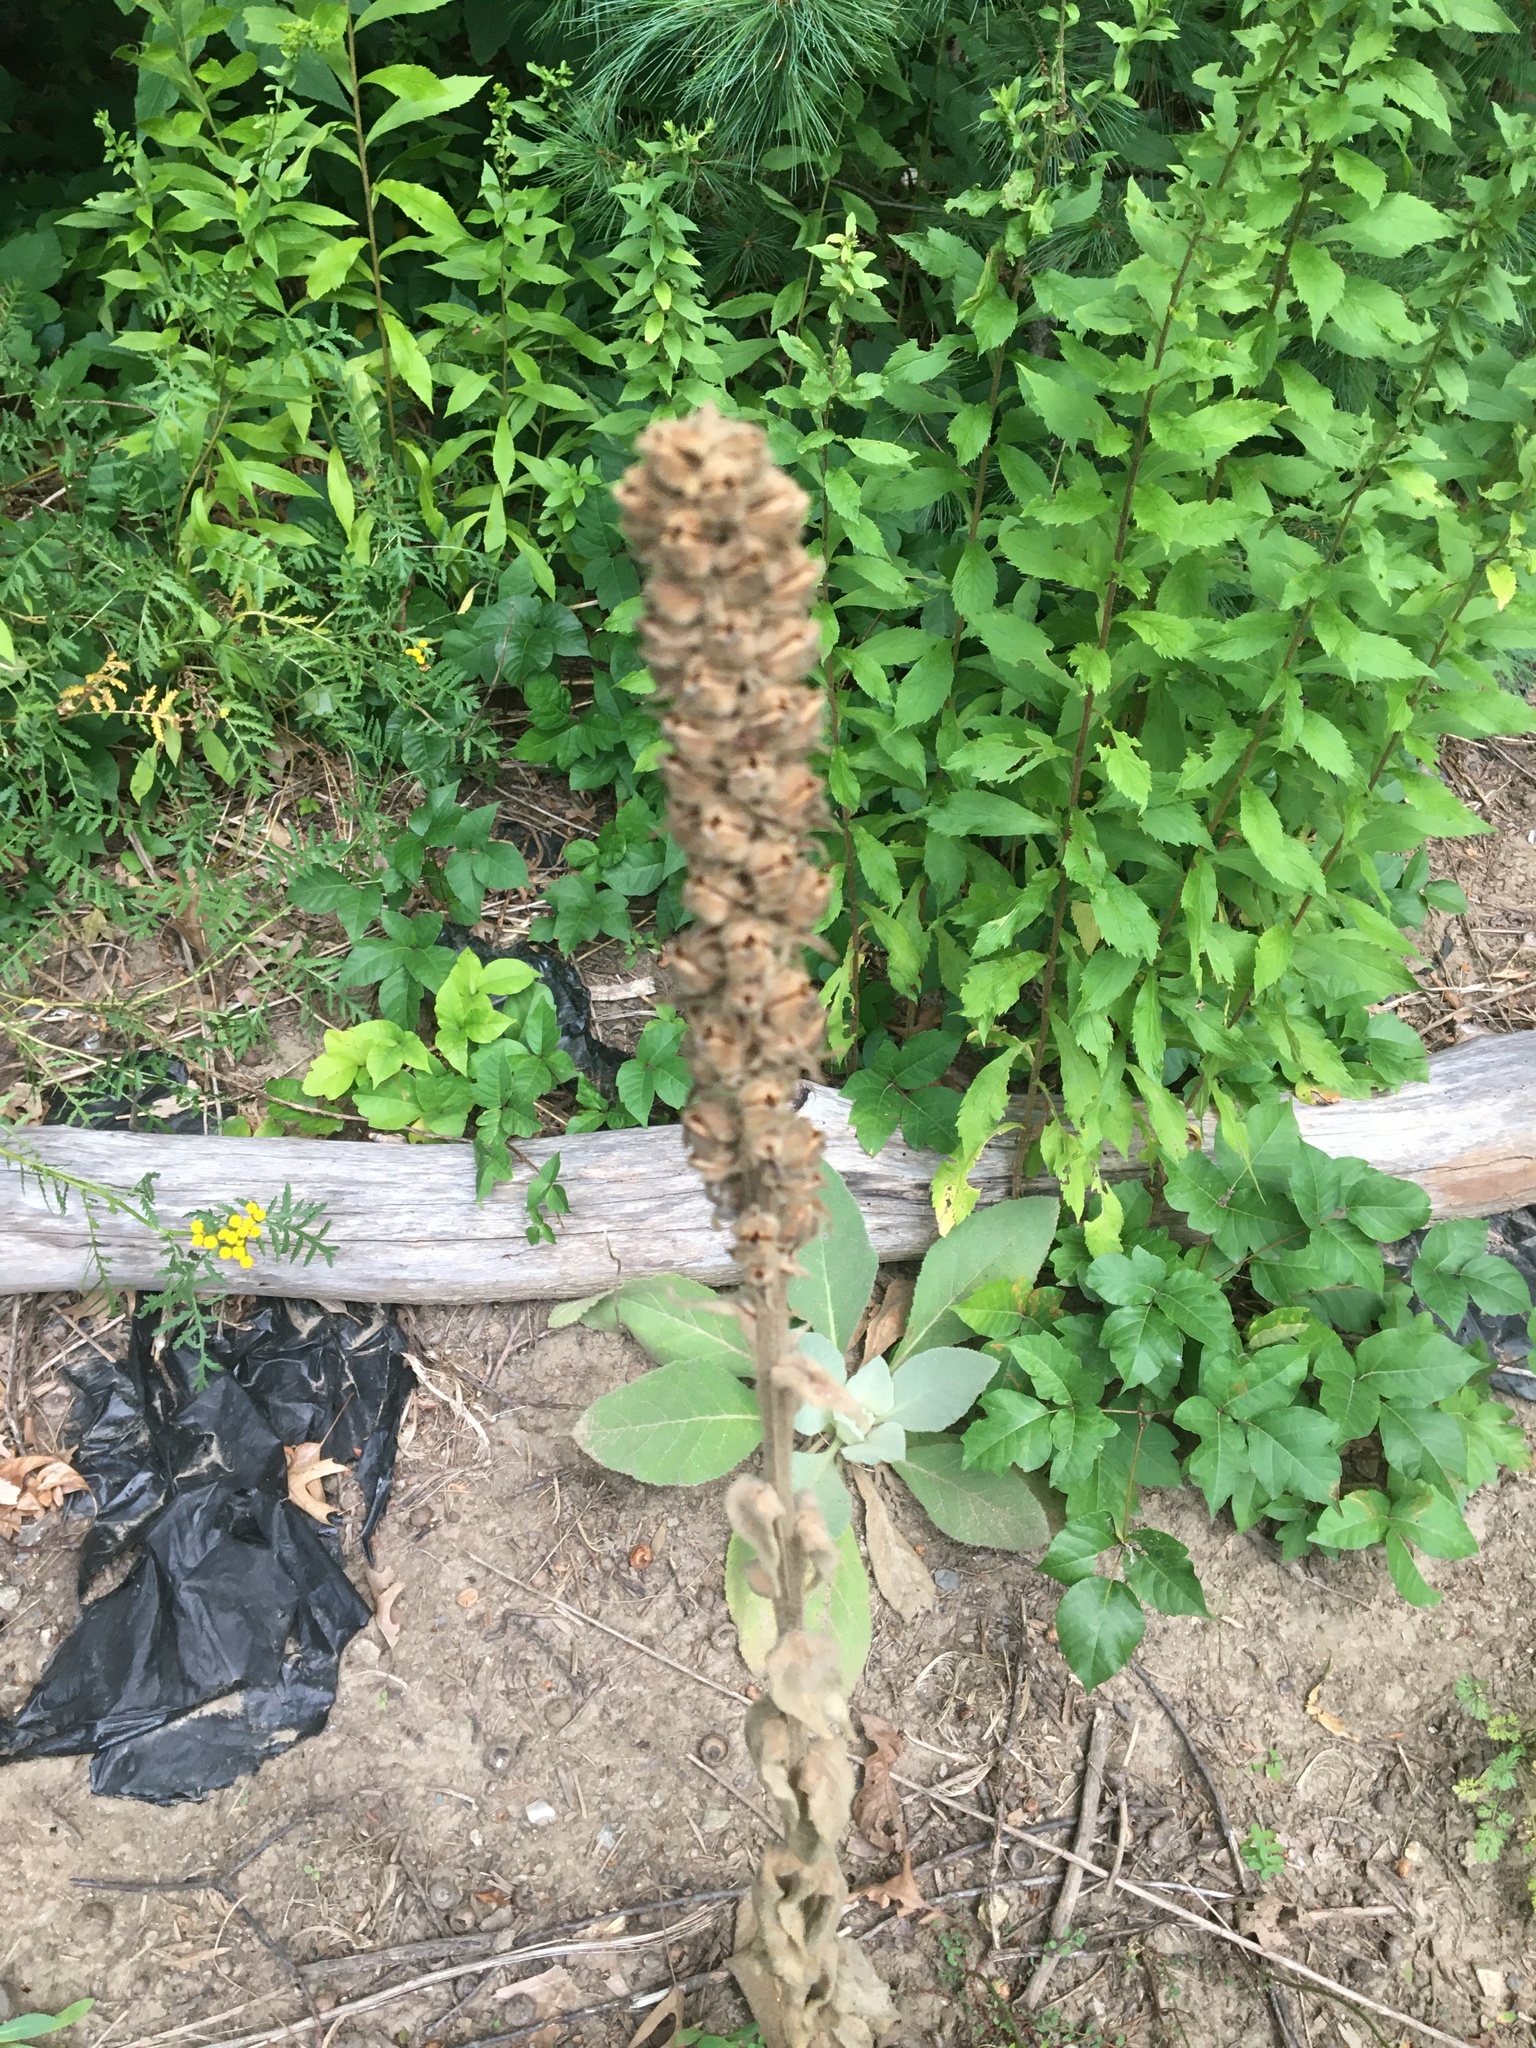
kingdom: Plantae
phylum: Tracheophyta
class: Magnoliopsida
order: Lamiales
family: Scrophulariaceae
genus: Verbascum
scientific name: Verbascum thapsus
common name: Common mullein
